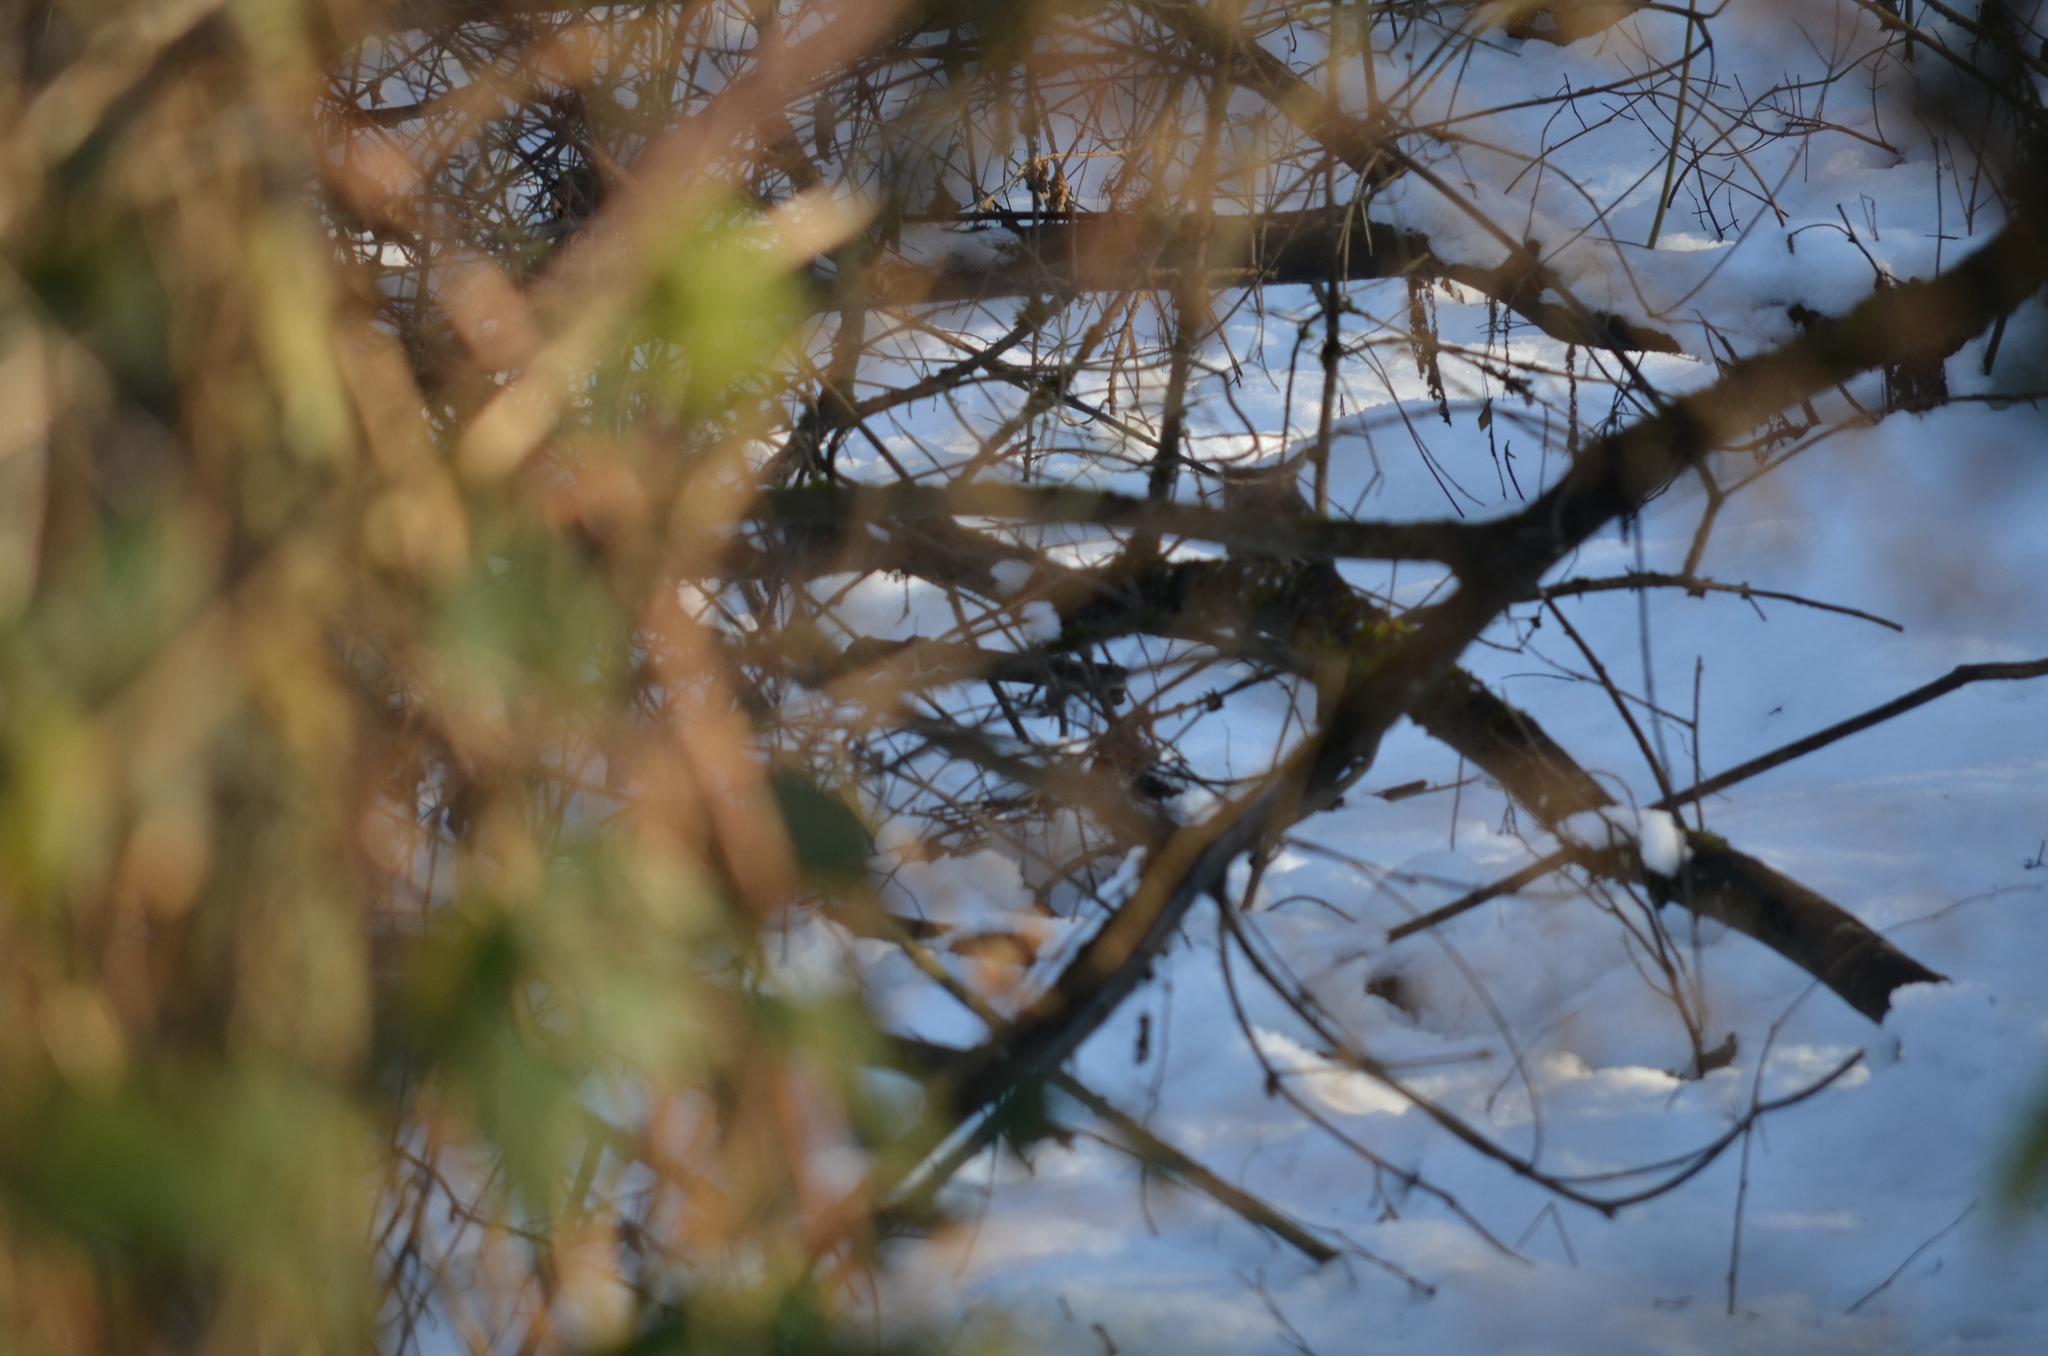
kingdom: Animalia
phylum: Chordata
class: Mammalia
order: Carnivora
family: Felidae
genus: Felis
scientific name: Felis catus
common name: Domestic cat
